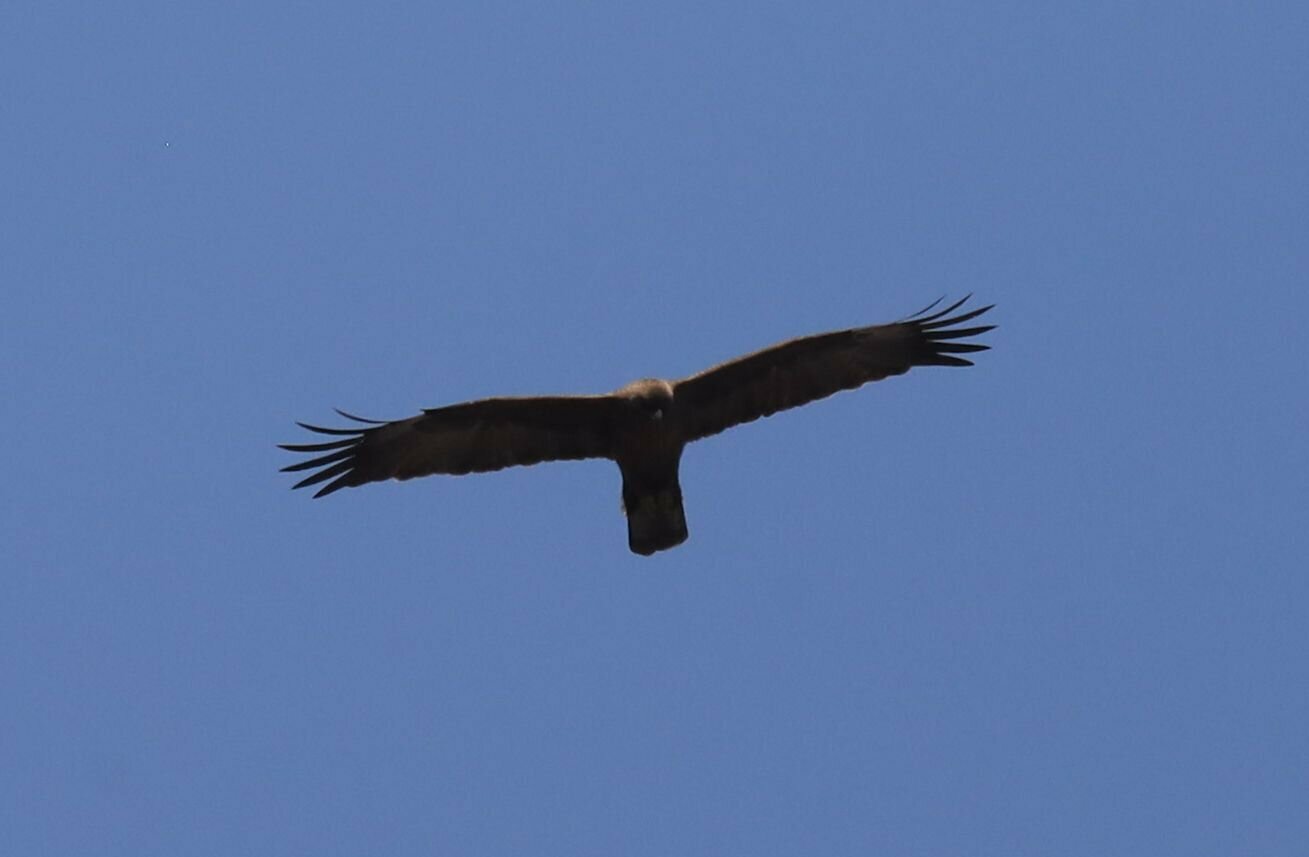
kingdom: Animalia
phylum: Chordata
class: Aves
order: Accipitriformes
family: Accipitridae
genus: Hieraaetus
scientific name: Hieraaetus wahlbergi
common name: Wahlberg's eagle
